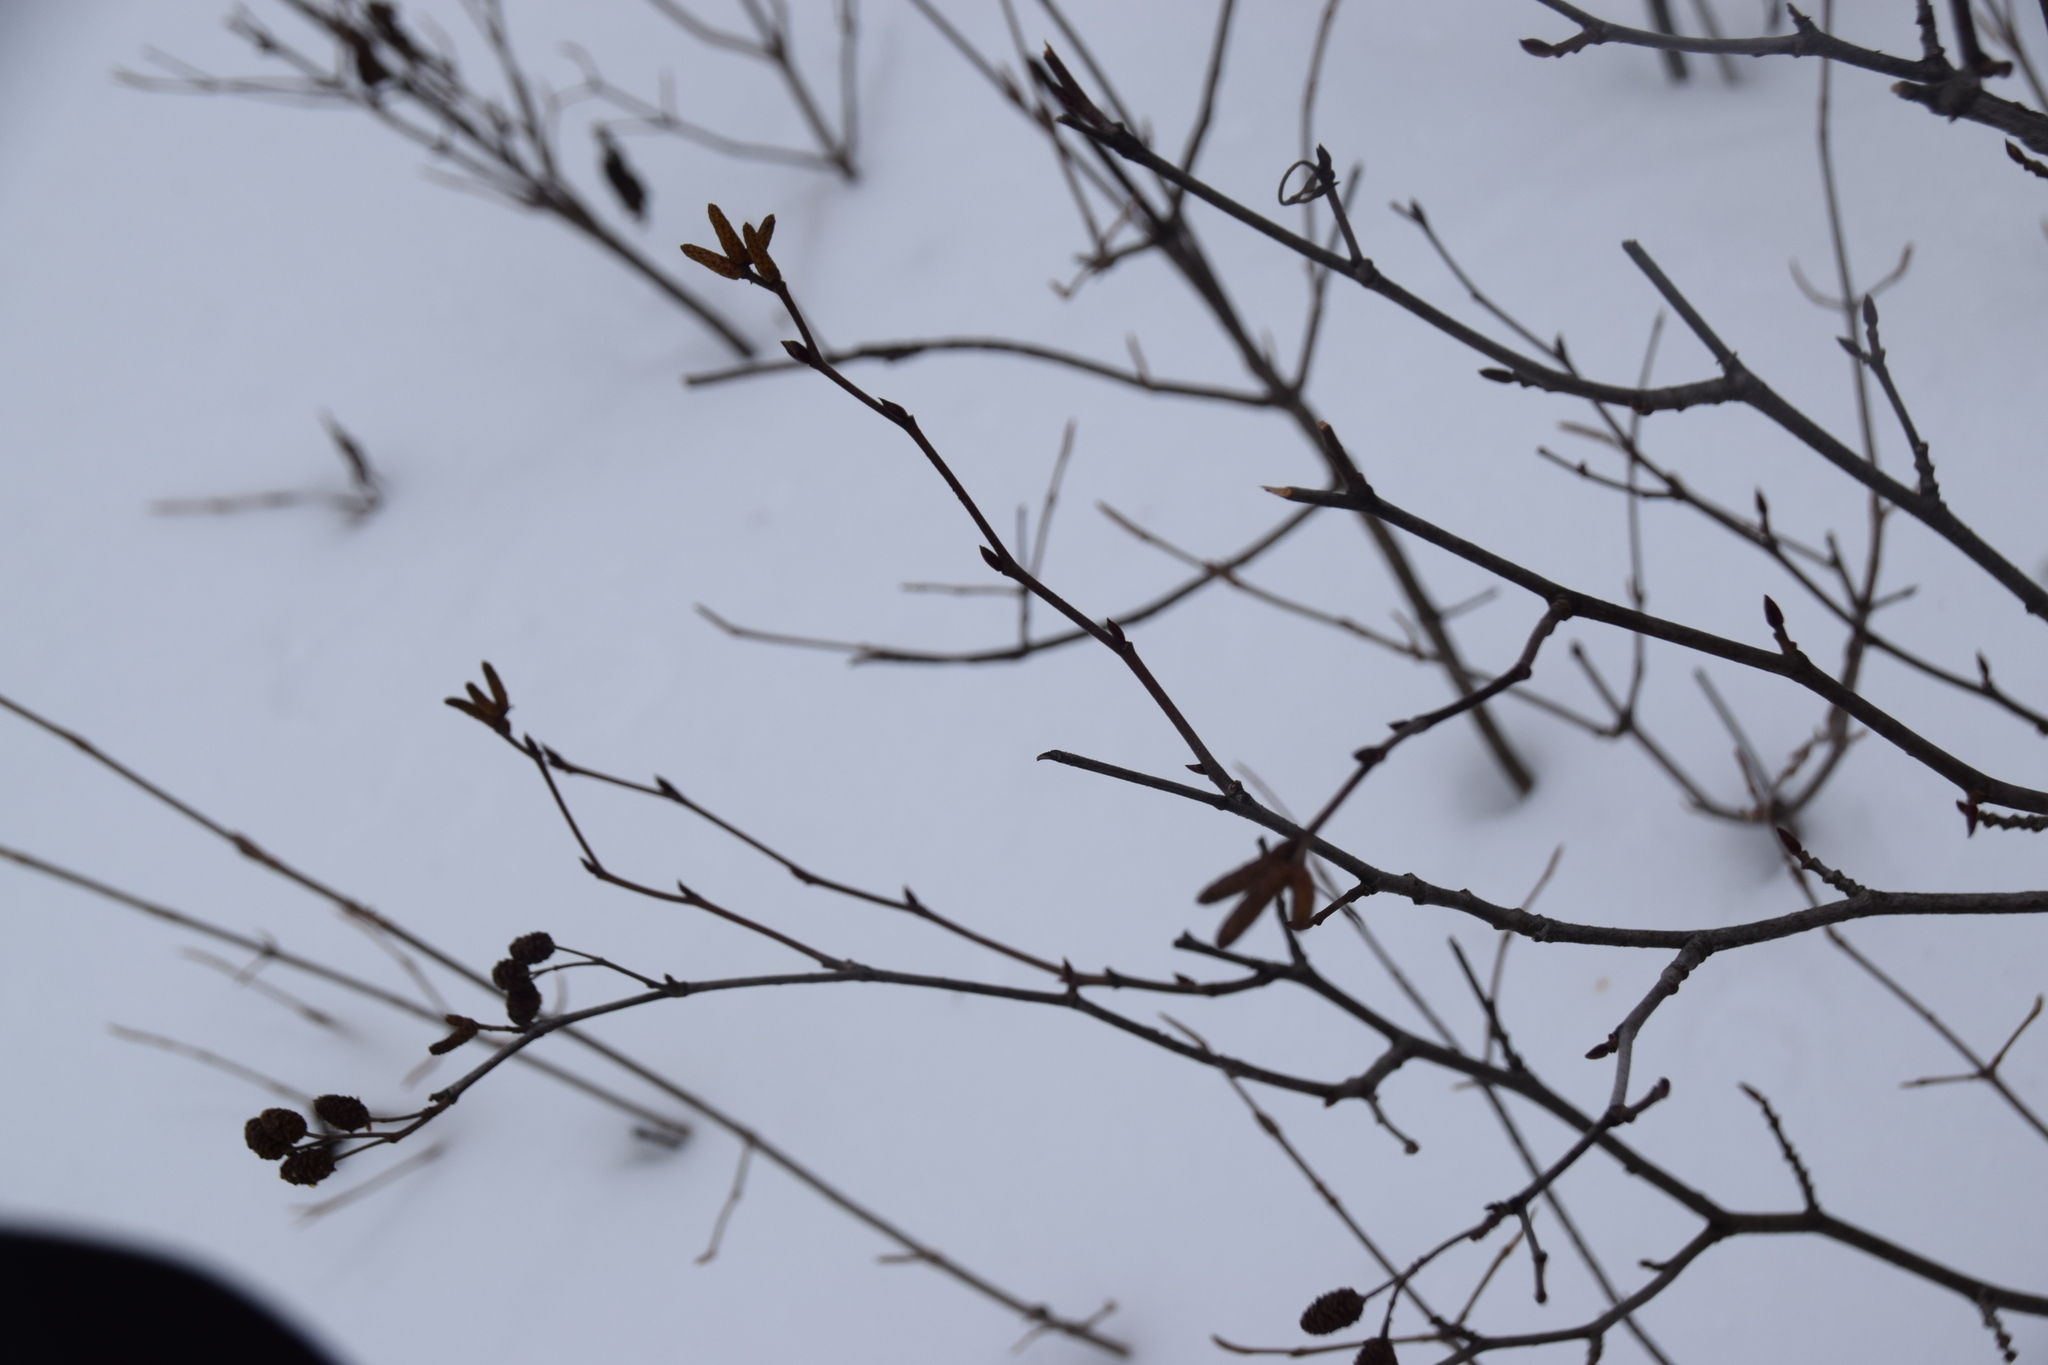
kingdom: Plantae
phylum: Tracheophyta
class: Magnoliopsida
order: Fagales
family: Betulaceae
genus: Alnus
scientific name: Alnus alnobetula
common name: Green alder
